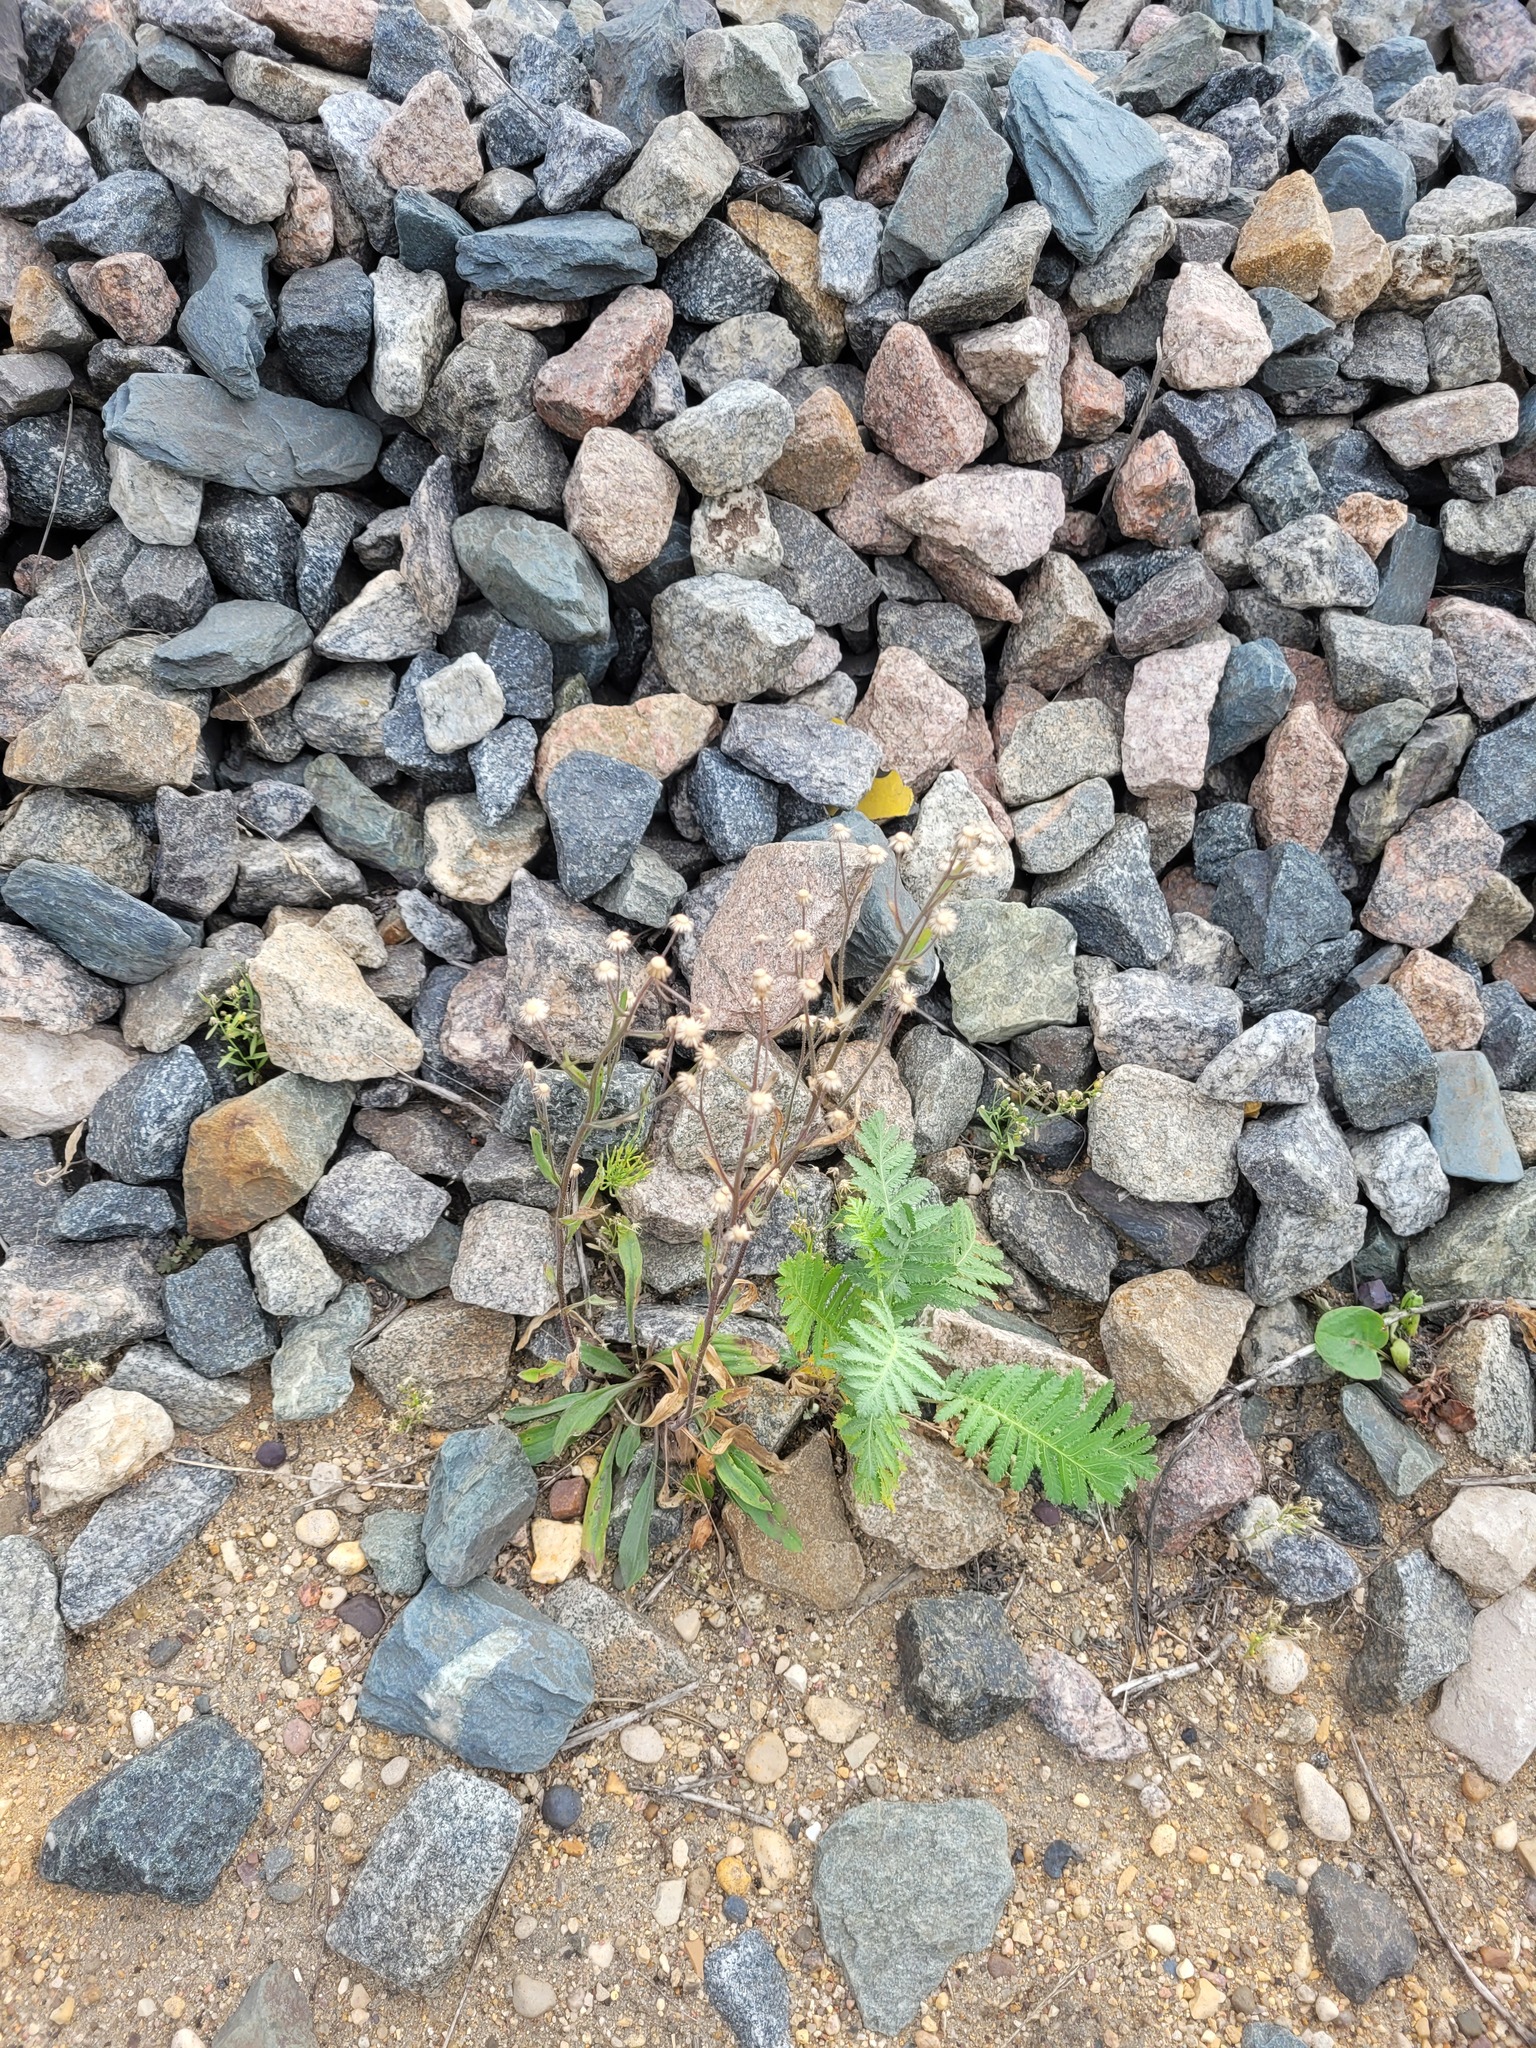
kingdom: Plantae
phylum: Tracheophyta
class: Magnoliopsida
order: Asterales
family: Asteraceae
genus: Erigeron
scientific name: Erigeron acris
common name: Blue fleabane
